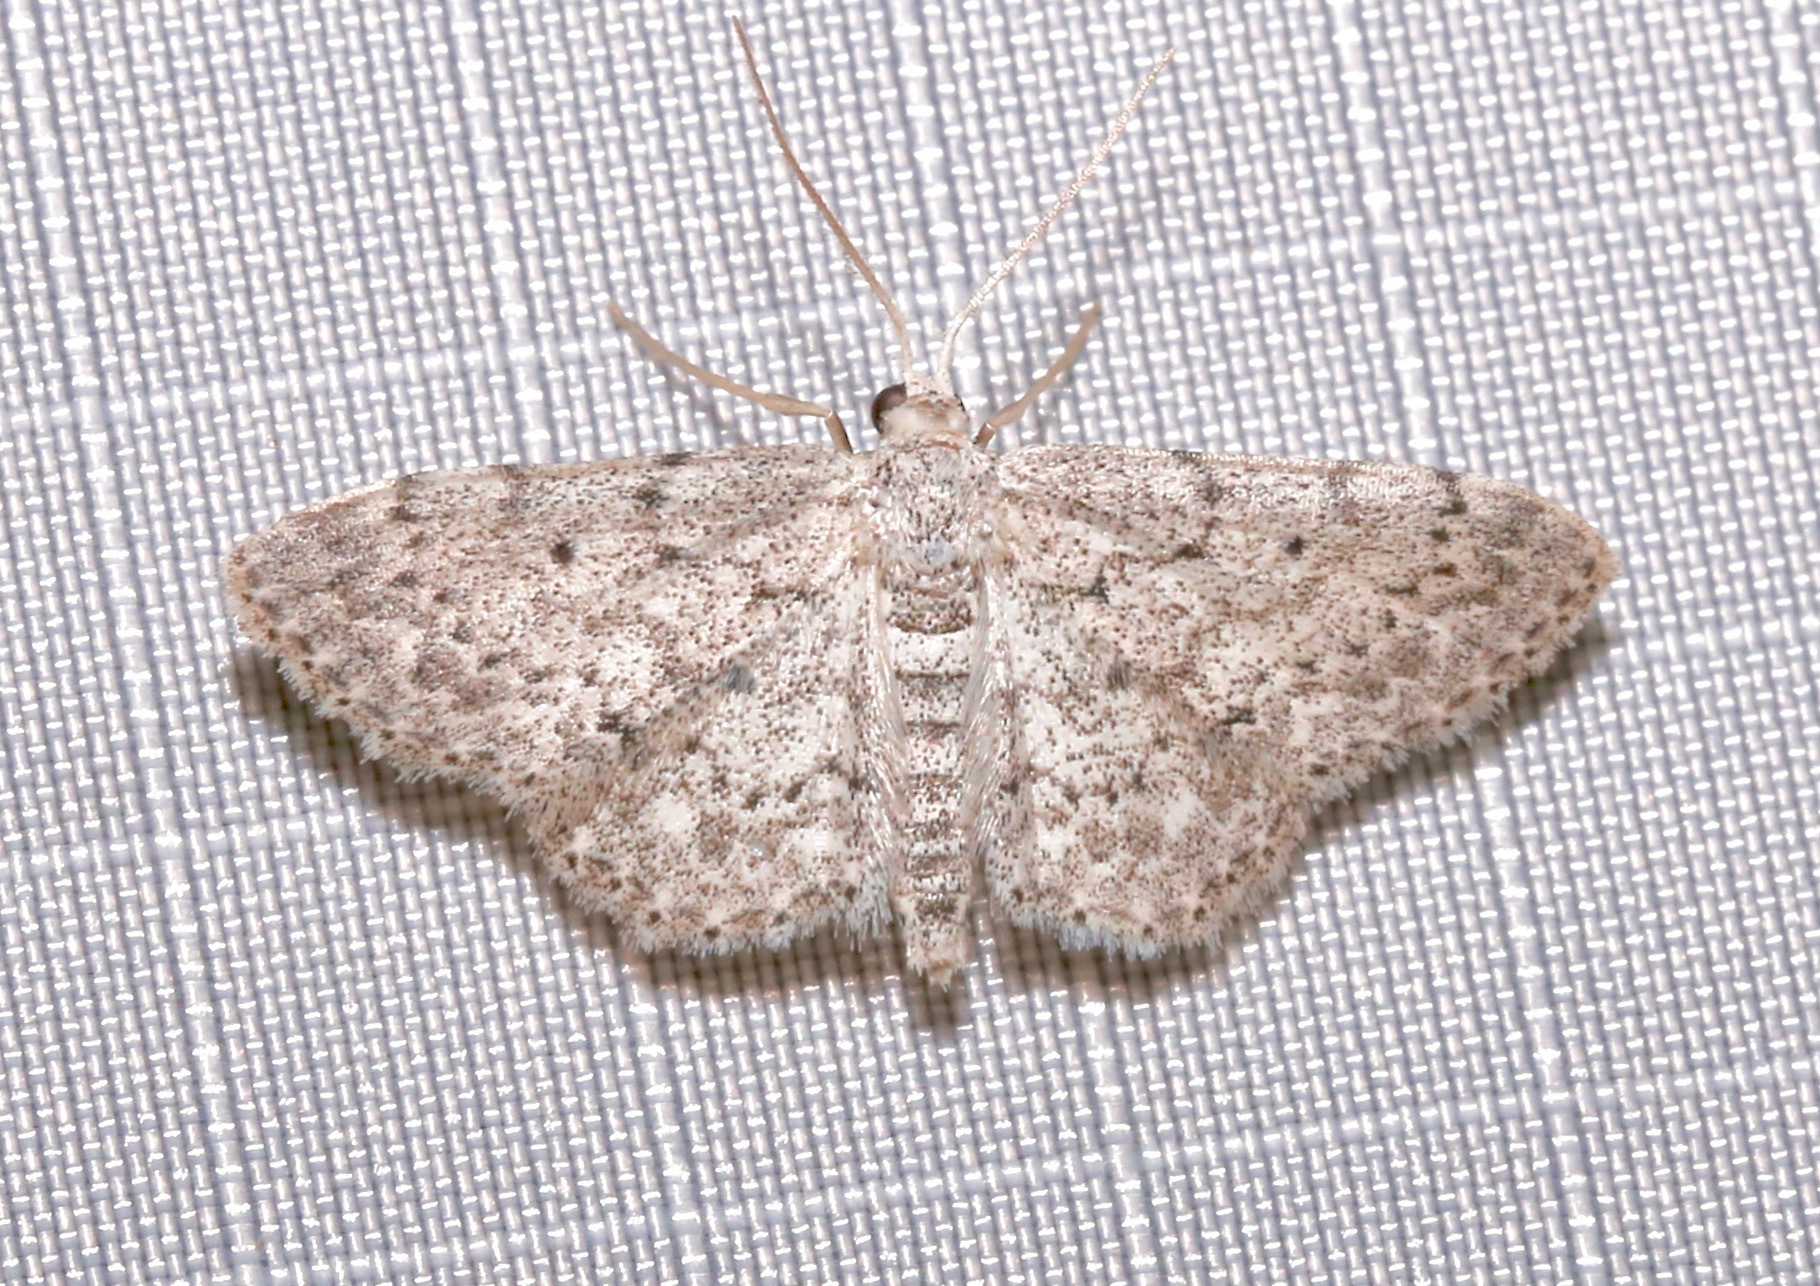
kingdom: Animalia
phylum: Arthropoda
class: Insecta
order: Lepidoptera
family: Geometridae
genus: Idaea
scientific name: Idaea ostentaria
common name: Showy wave moth
